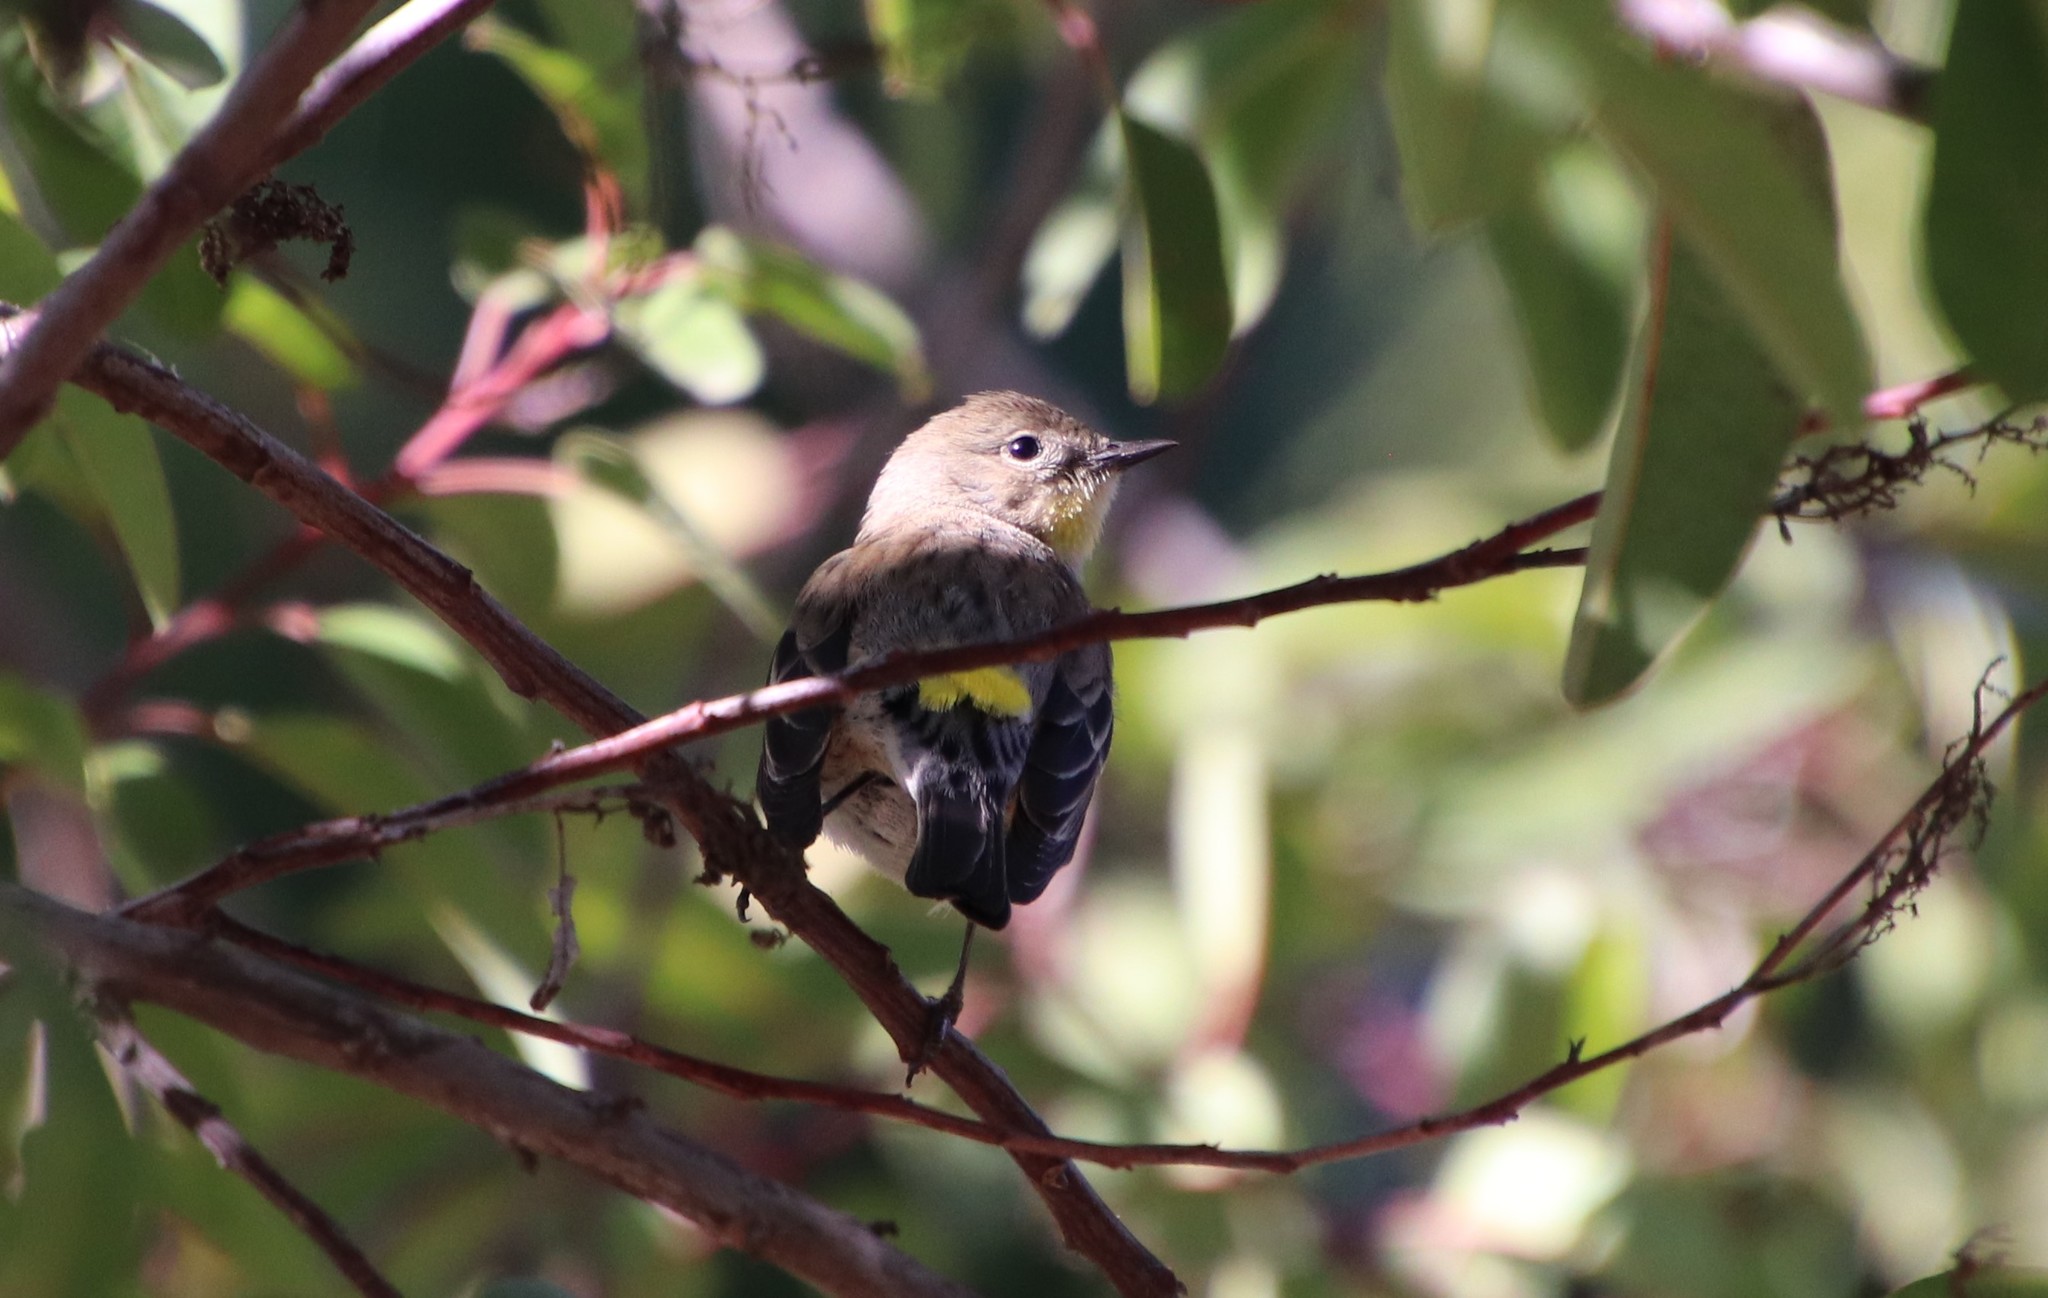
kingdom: Animalia
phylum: Chordata
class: Aves
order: Passeriformes
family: Parulidae
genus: Setophaga
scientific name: Setophaga coronata
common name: Myrtle warbler
